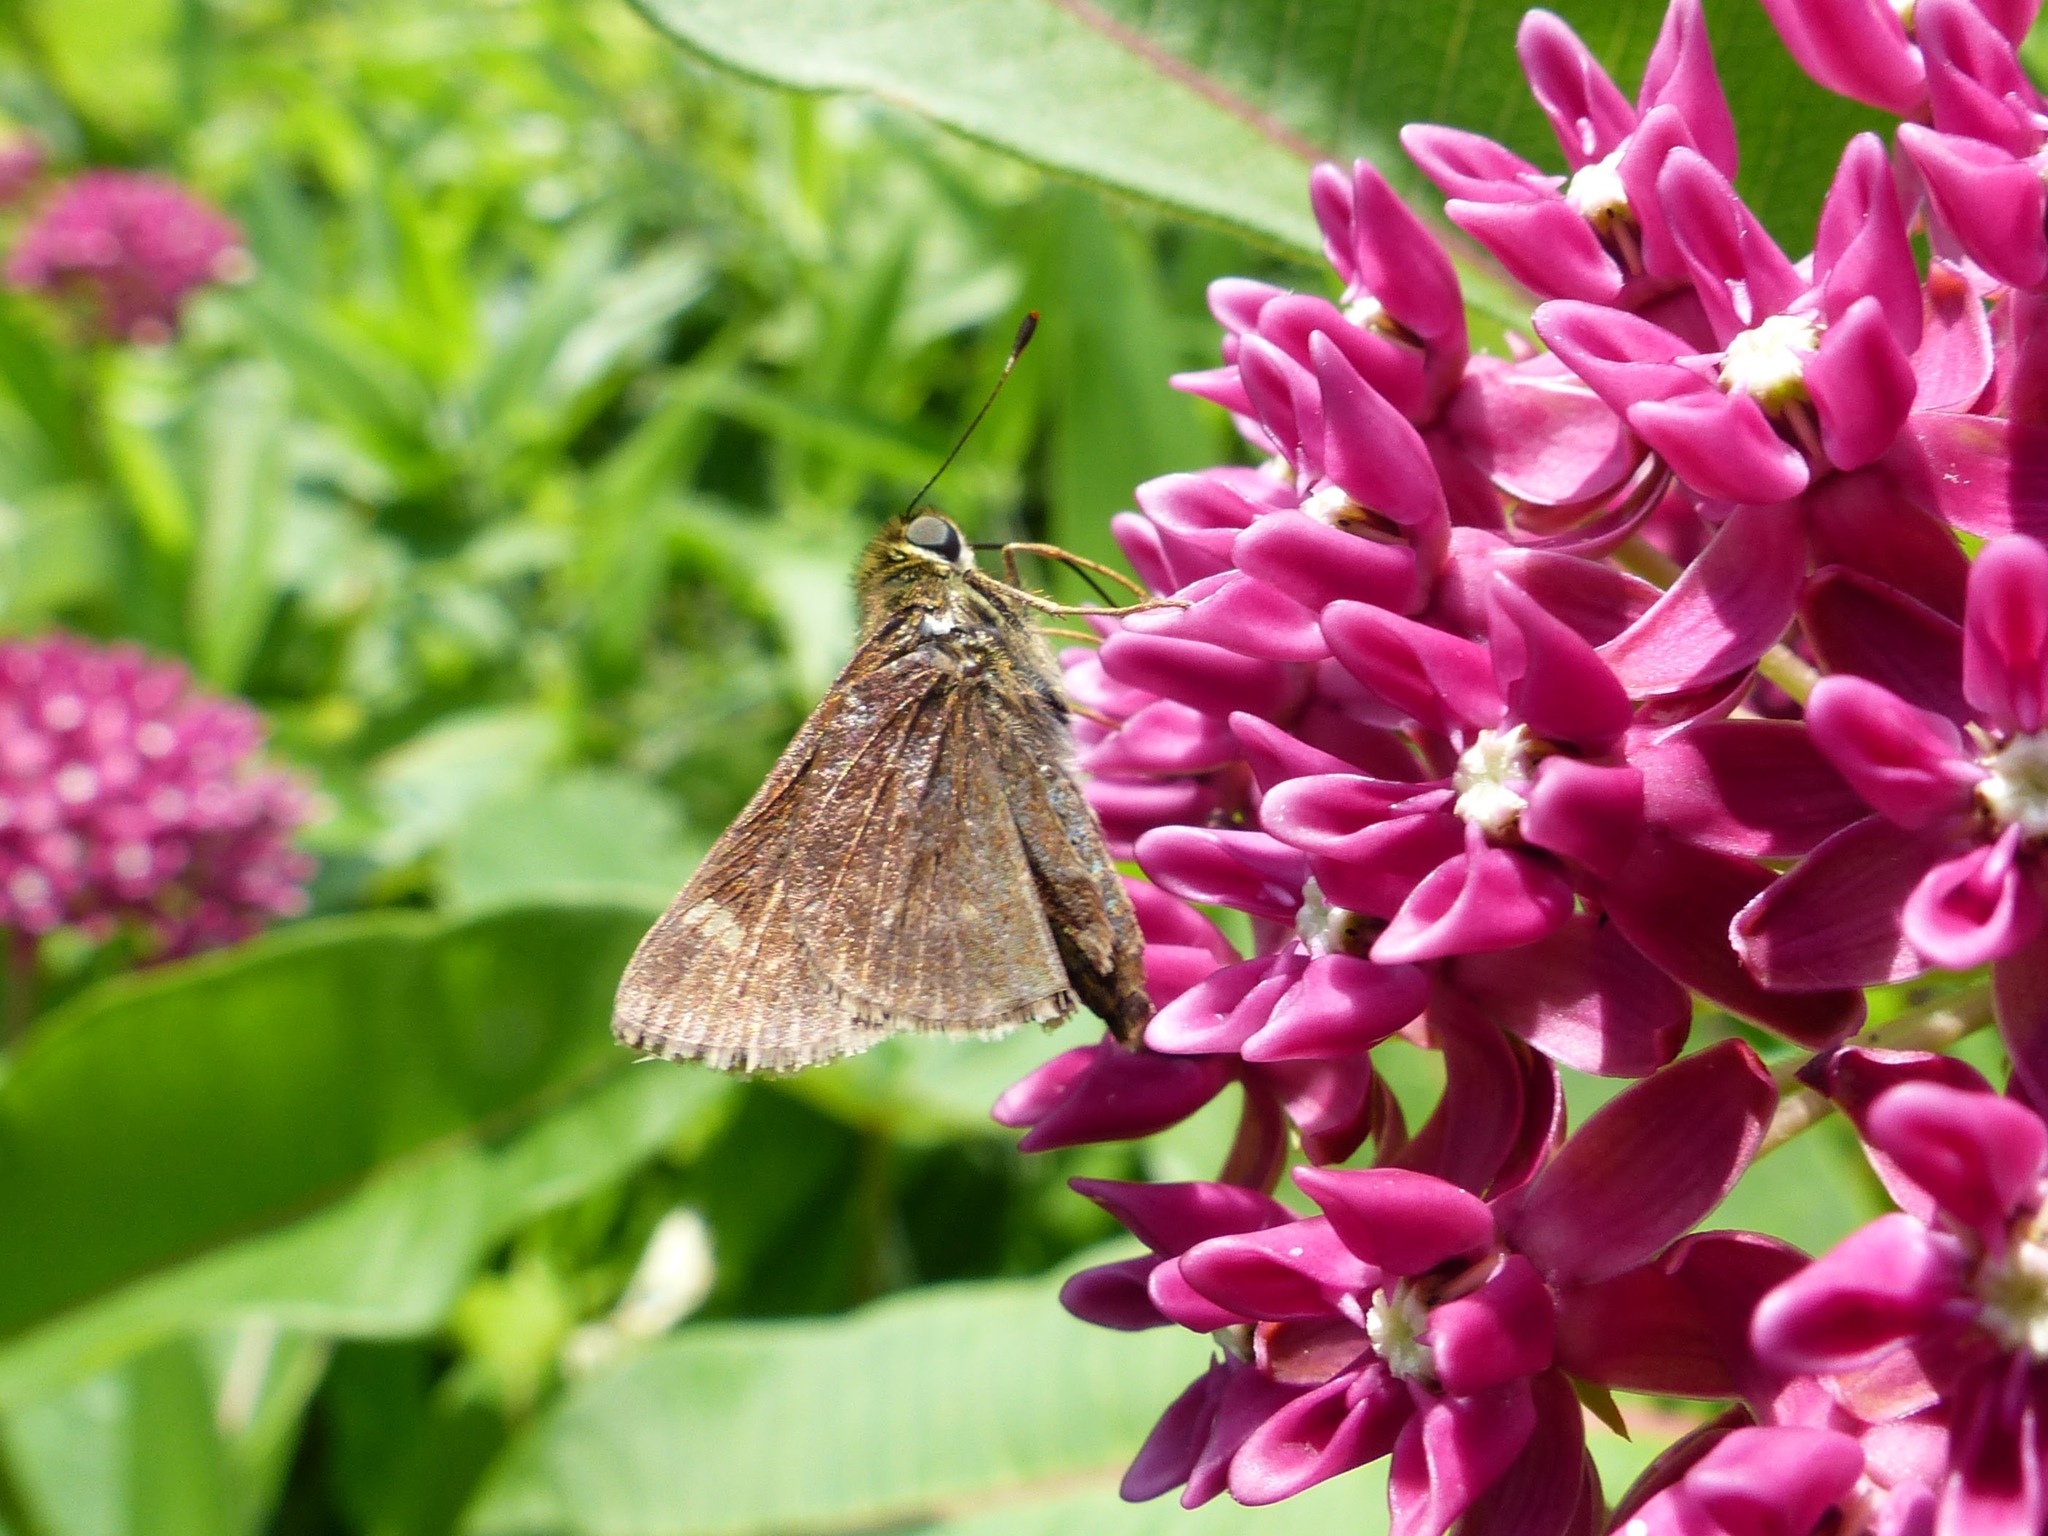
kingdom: Animalia
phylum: Arthropoda
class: Insecta
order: Lepidoptera
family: Hesperiidae
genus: Vernia
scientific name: Vernia verna
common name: Little glassywing
